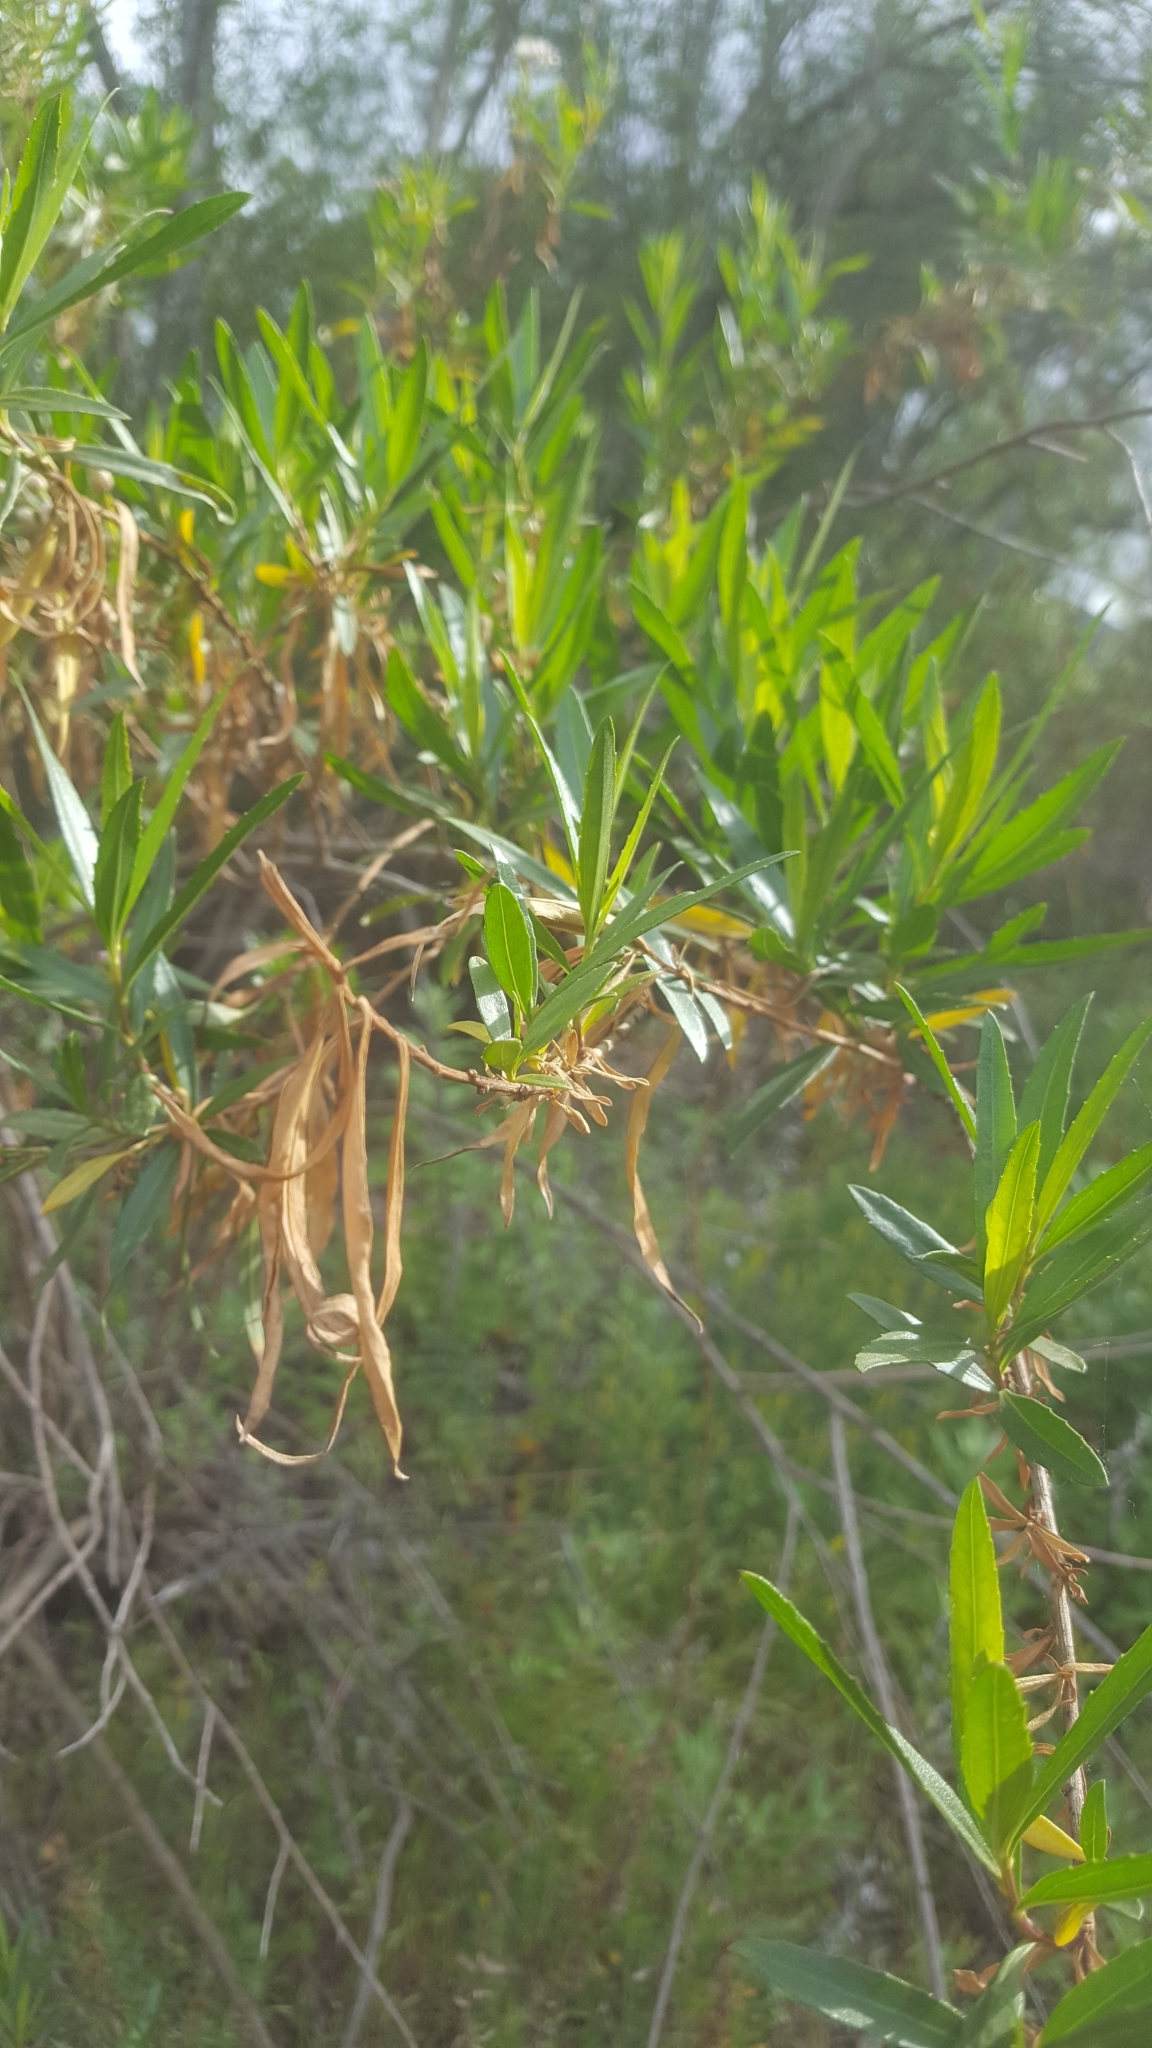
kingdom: Plantae
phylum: Tracheophyta
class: Magnoliopsida
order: Asterales
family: Asteraceae
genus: Baccharis
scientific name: Baccharis salicifolia
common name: Sticky baccharis
